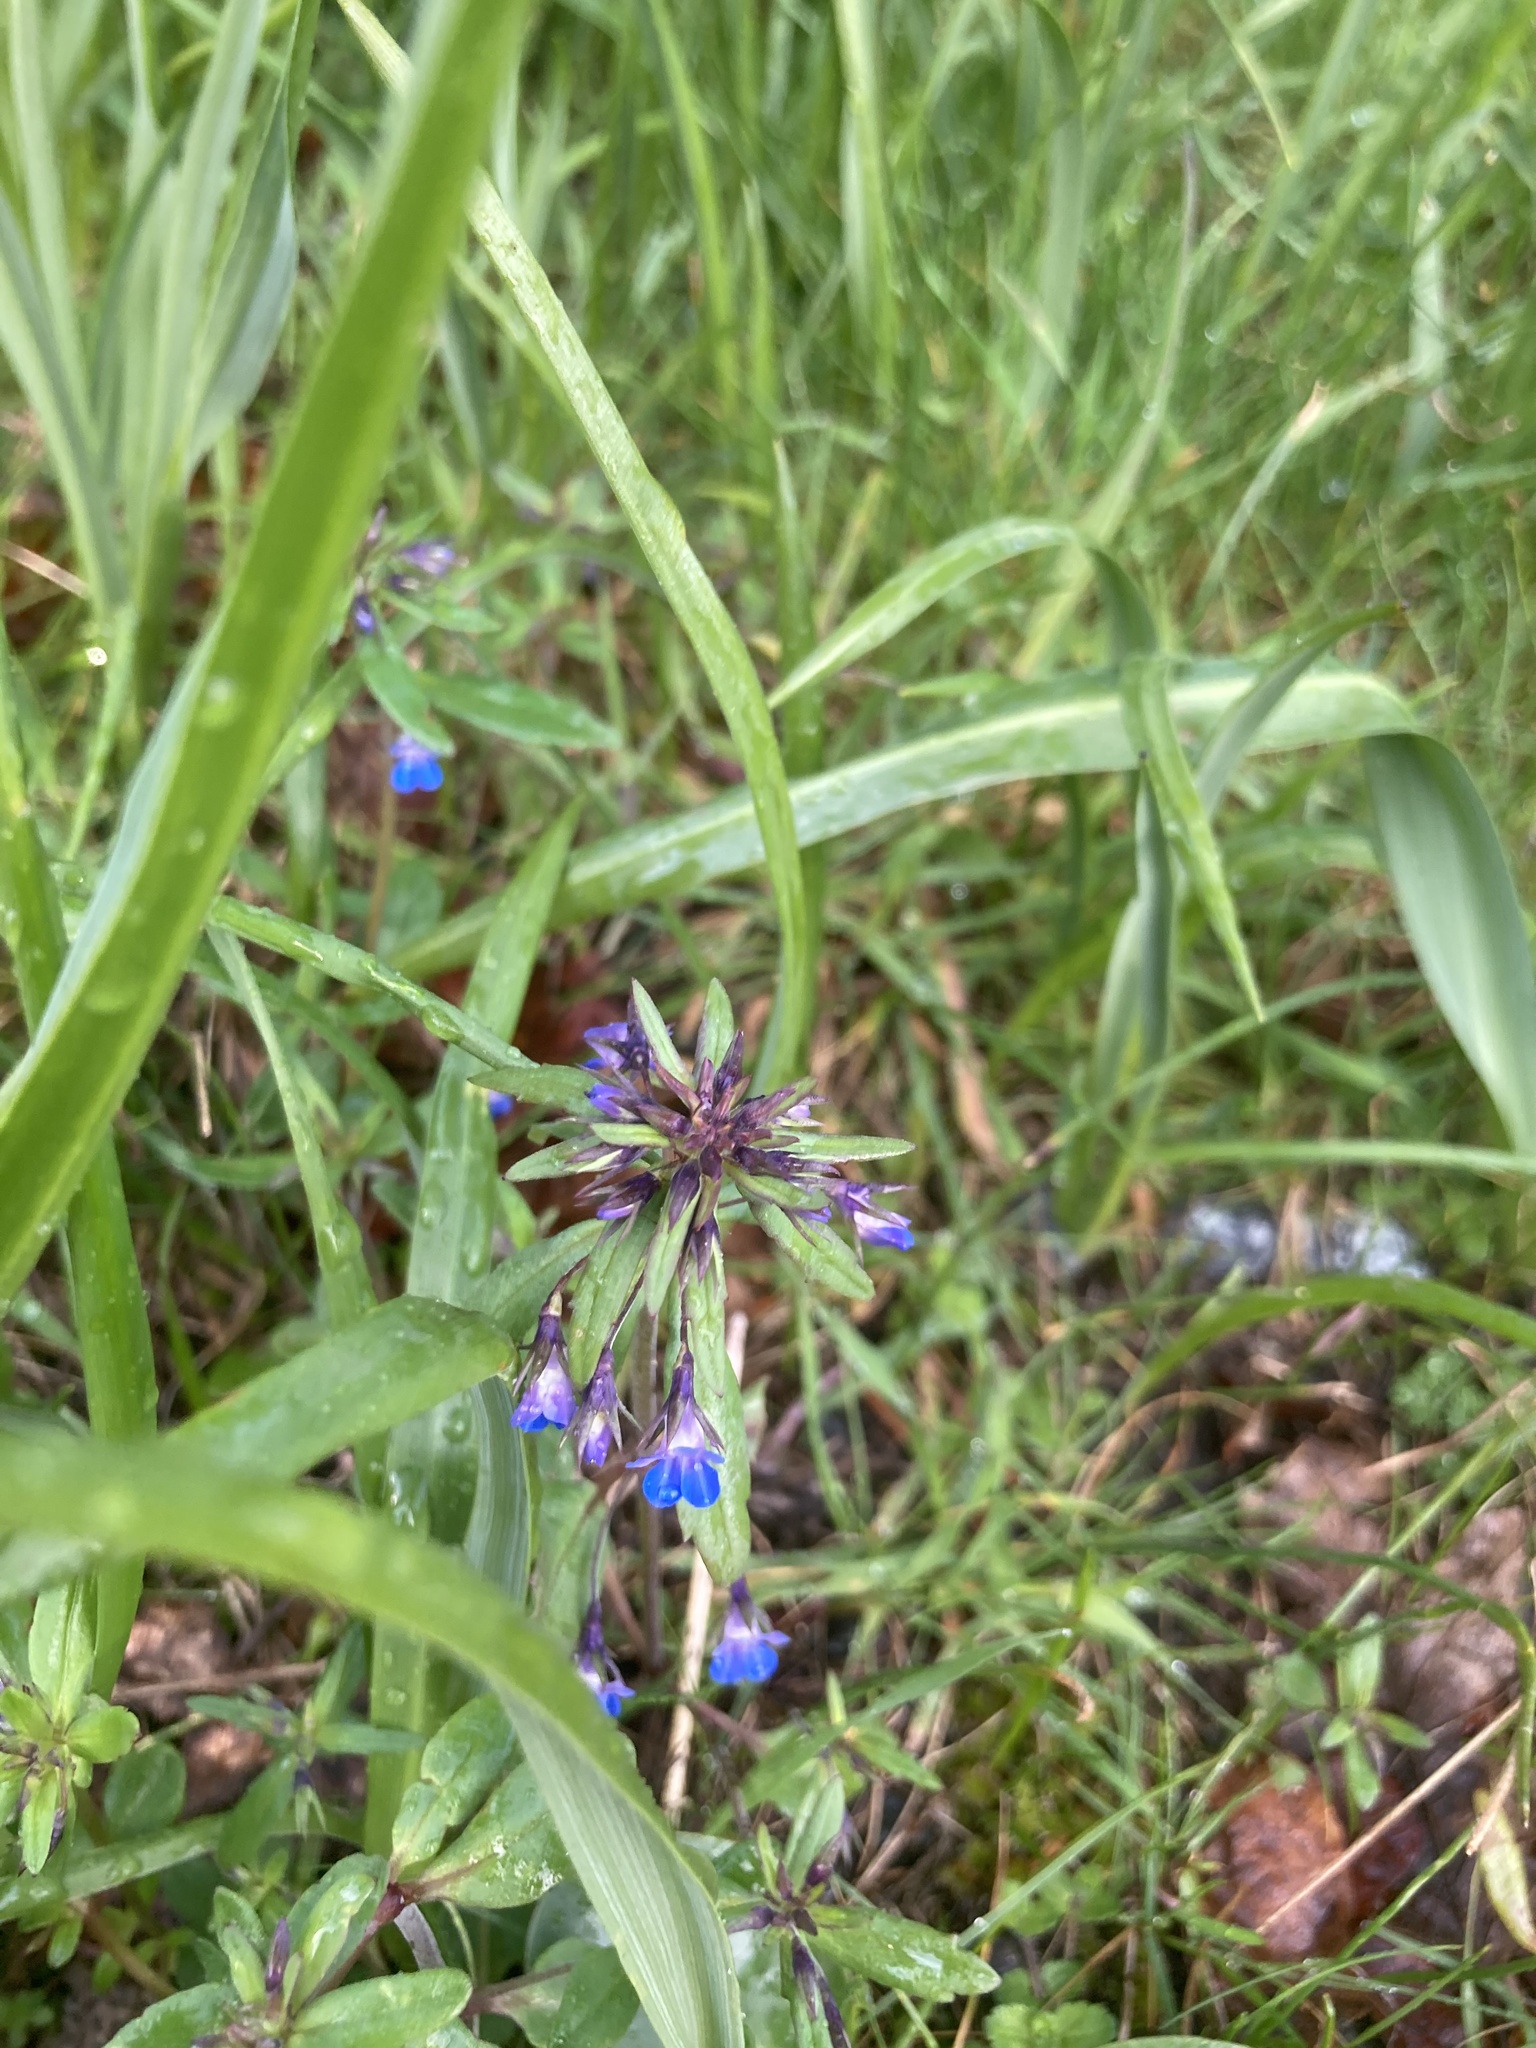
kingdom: Plantae
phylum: Tracheophyta
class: Magnoliopsida
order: Lamiales
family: Plantaginaceae
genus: Collinsia
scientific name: Collinsia parviflora
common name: Blue-lips
